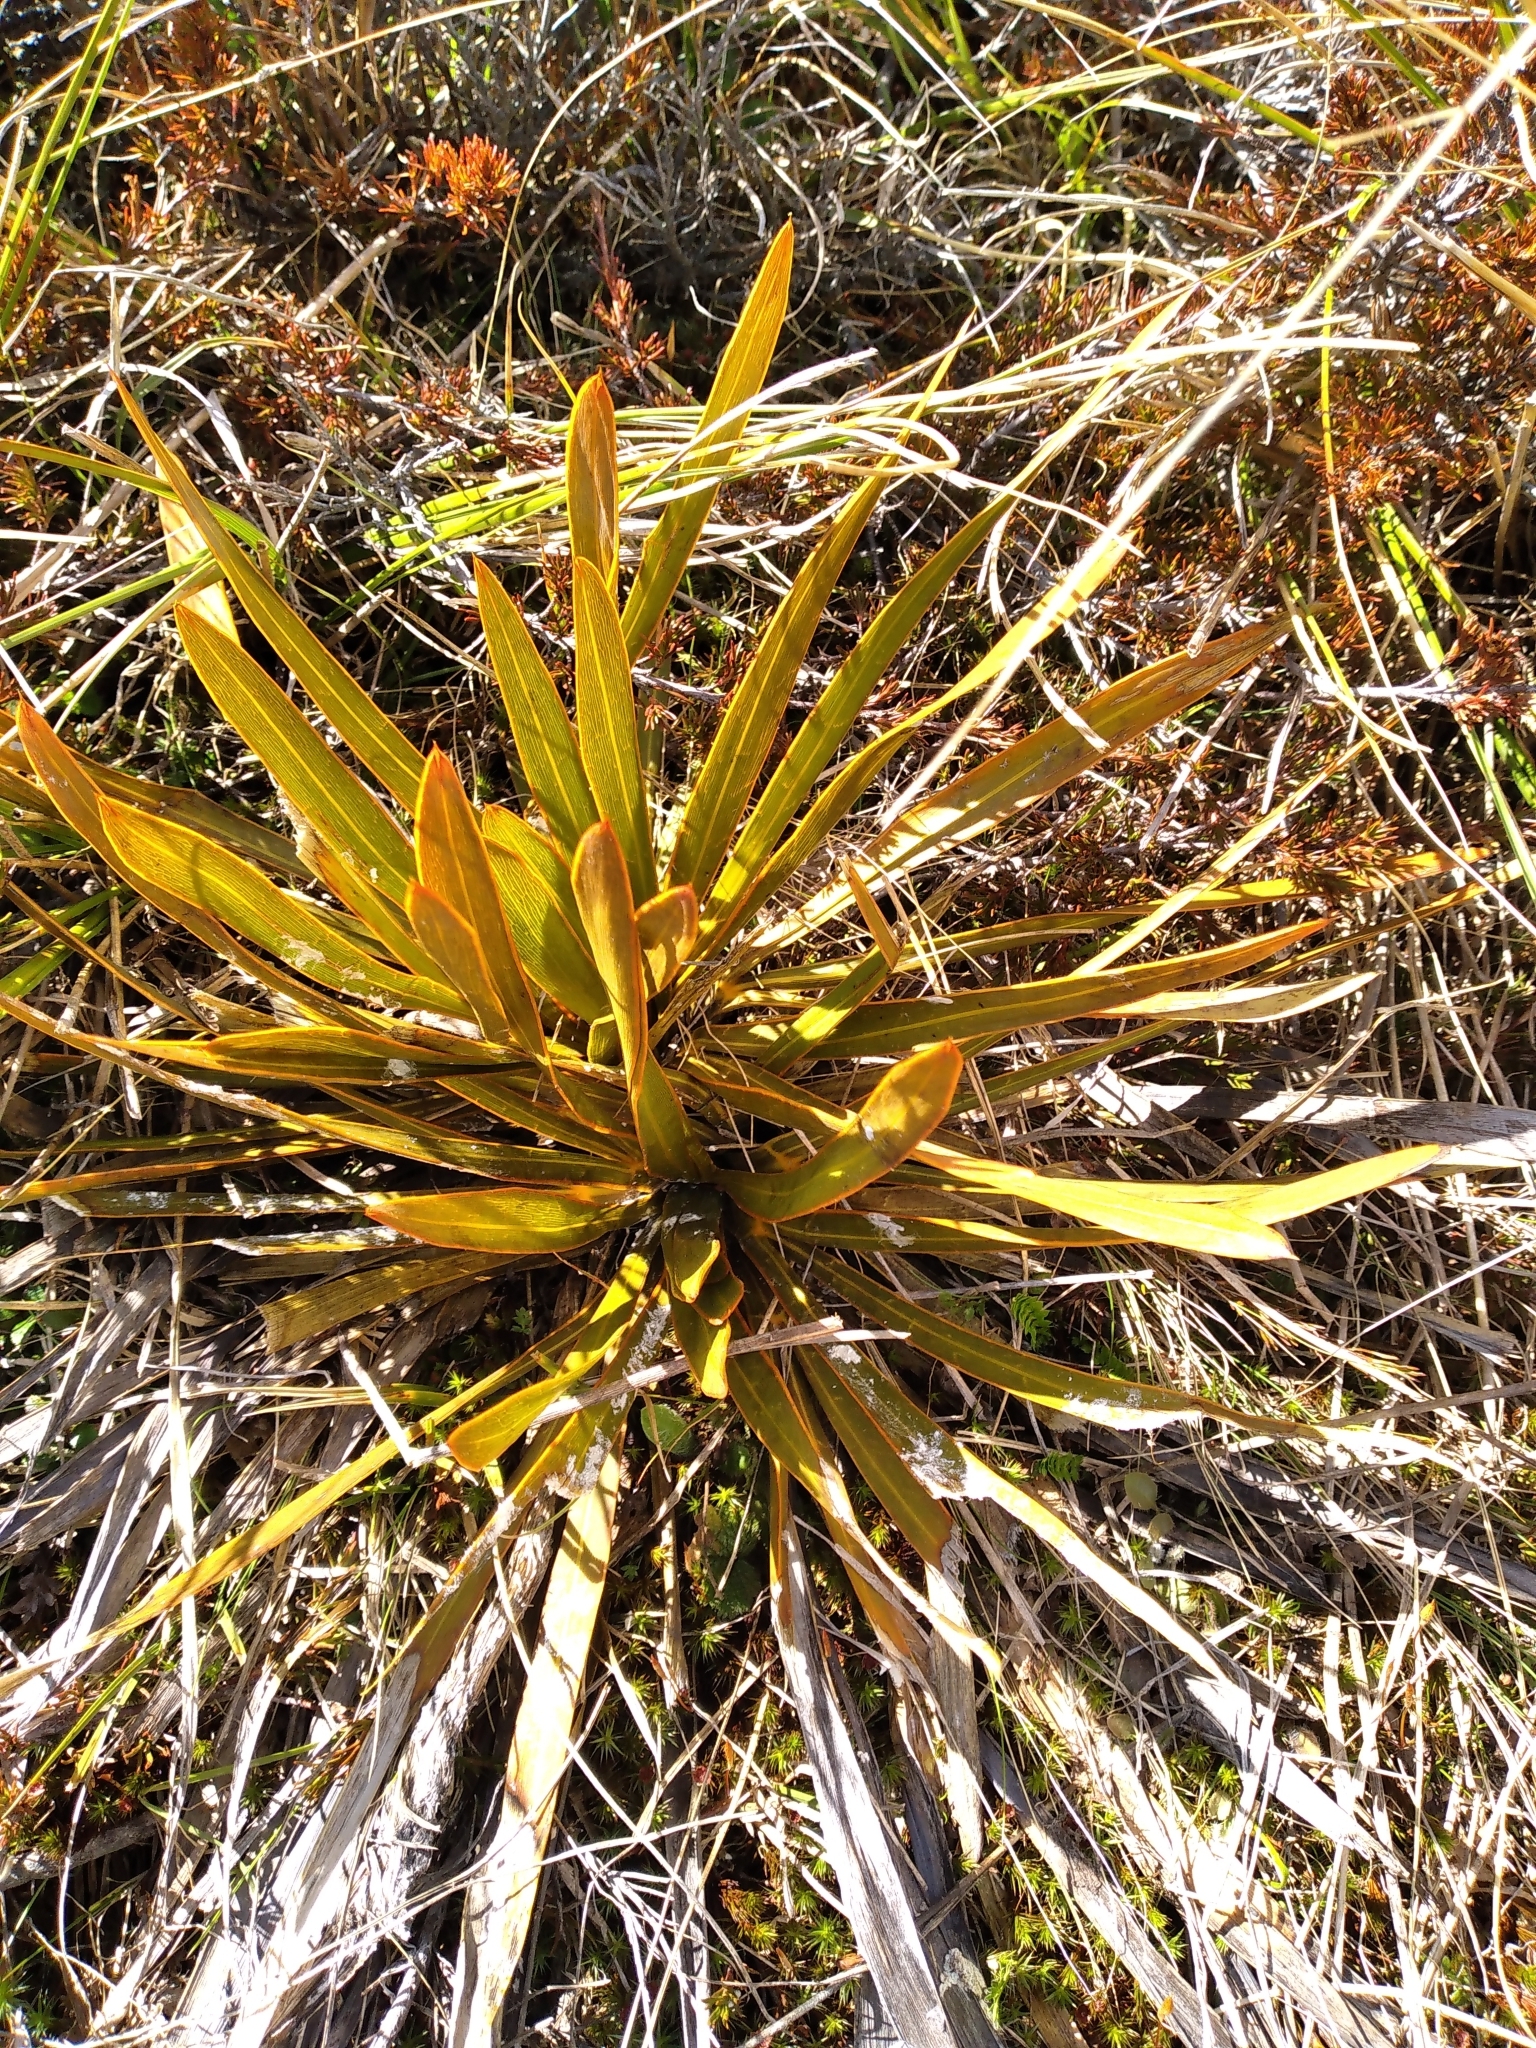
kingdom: Plantae
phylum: Tracheophyta
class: Magnoliopsida
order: Apiales
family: Apiaceae
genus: Aciphylla
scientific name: Aciphylla kirkii
